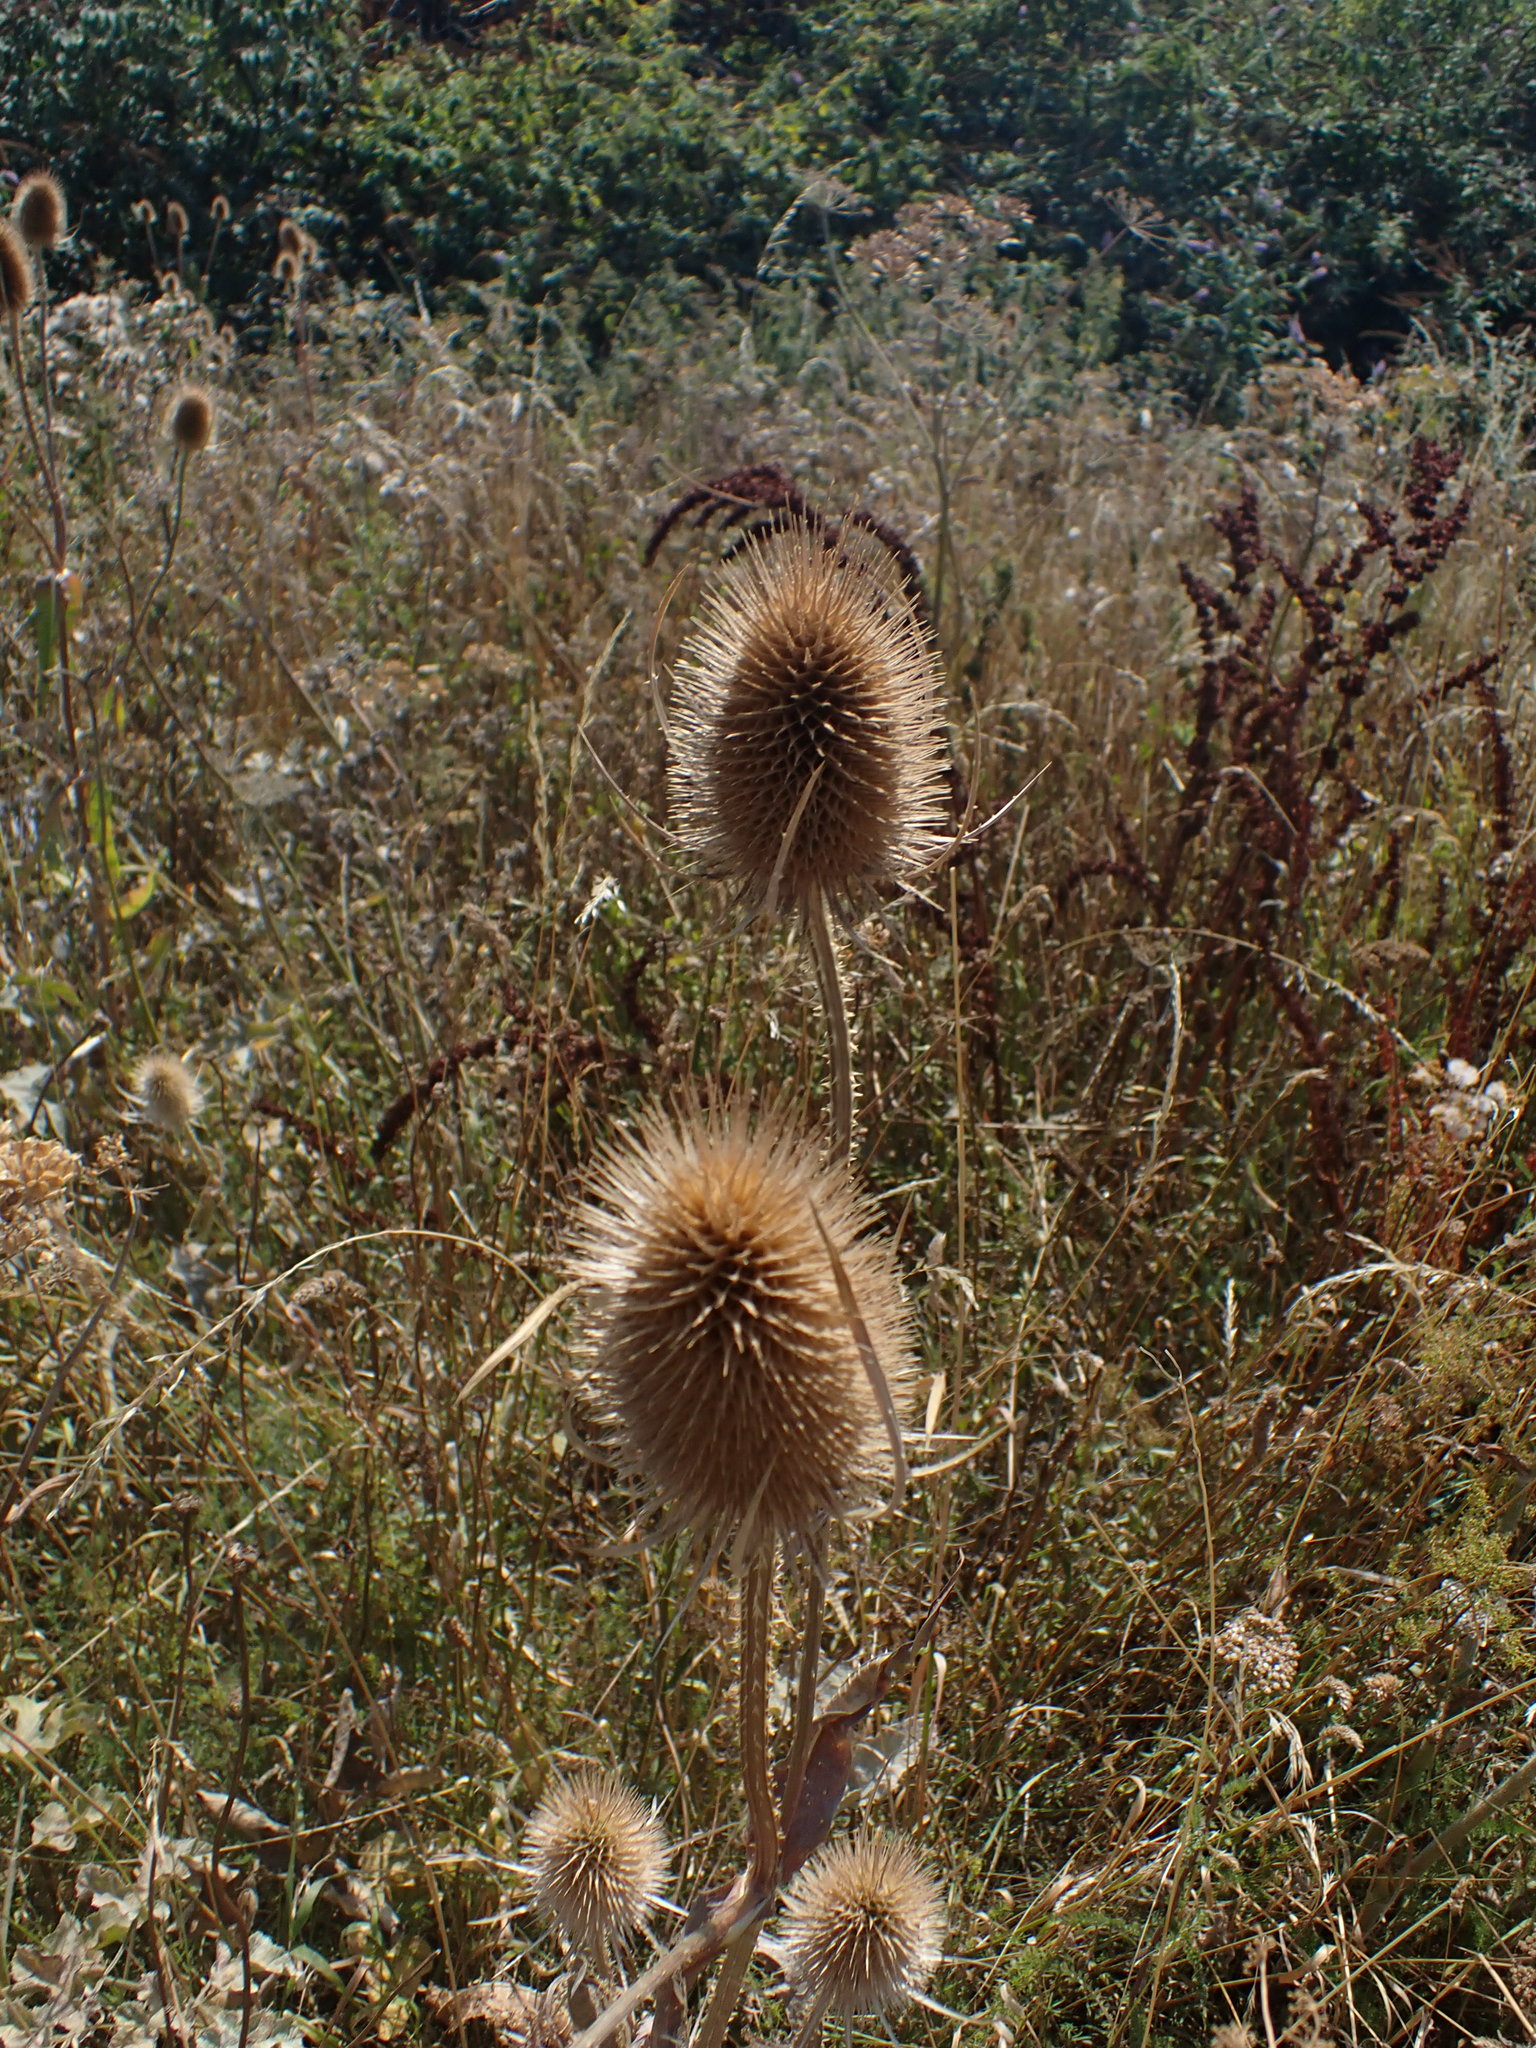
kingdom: Plantae
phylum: Tracheophyta
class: Magnoliopsida
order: Dipsacales
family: Caprifoliaceae
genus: Dipsacus
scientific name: Dipsacus fullonum
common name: Teasel
